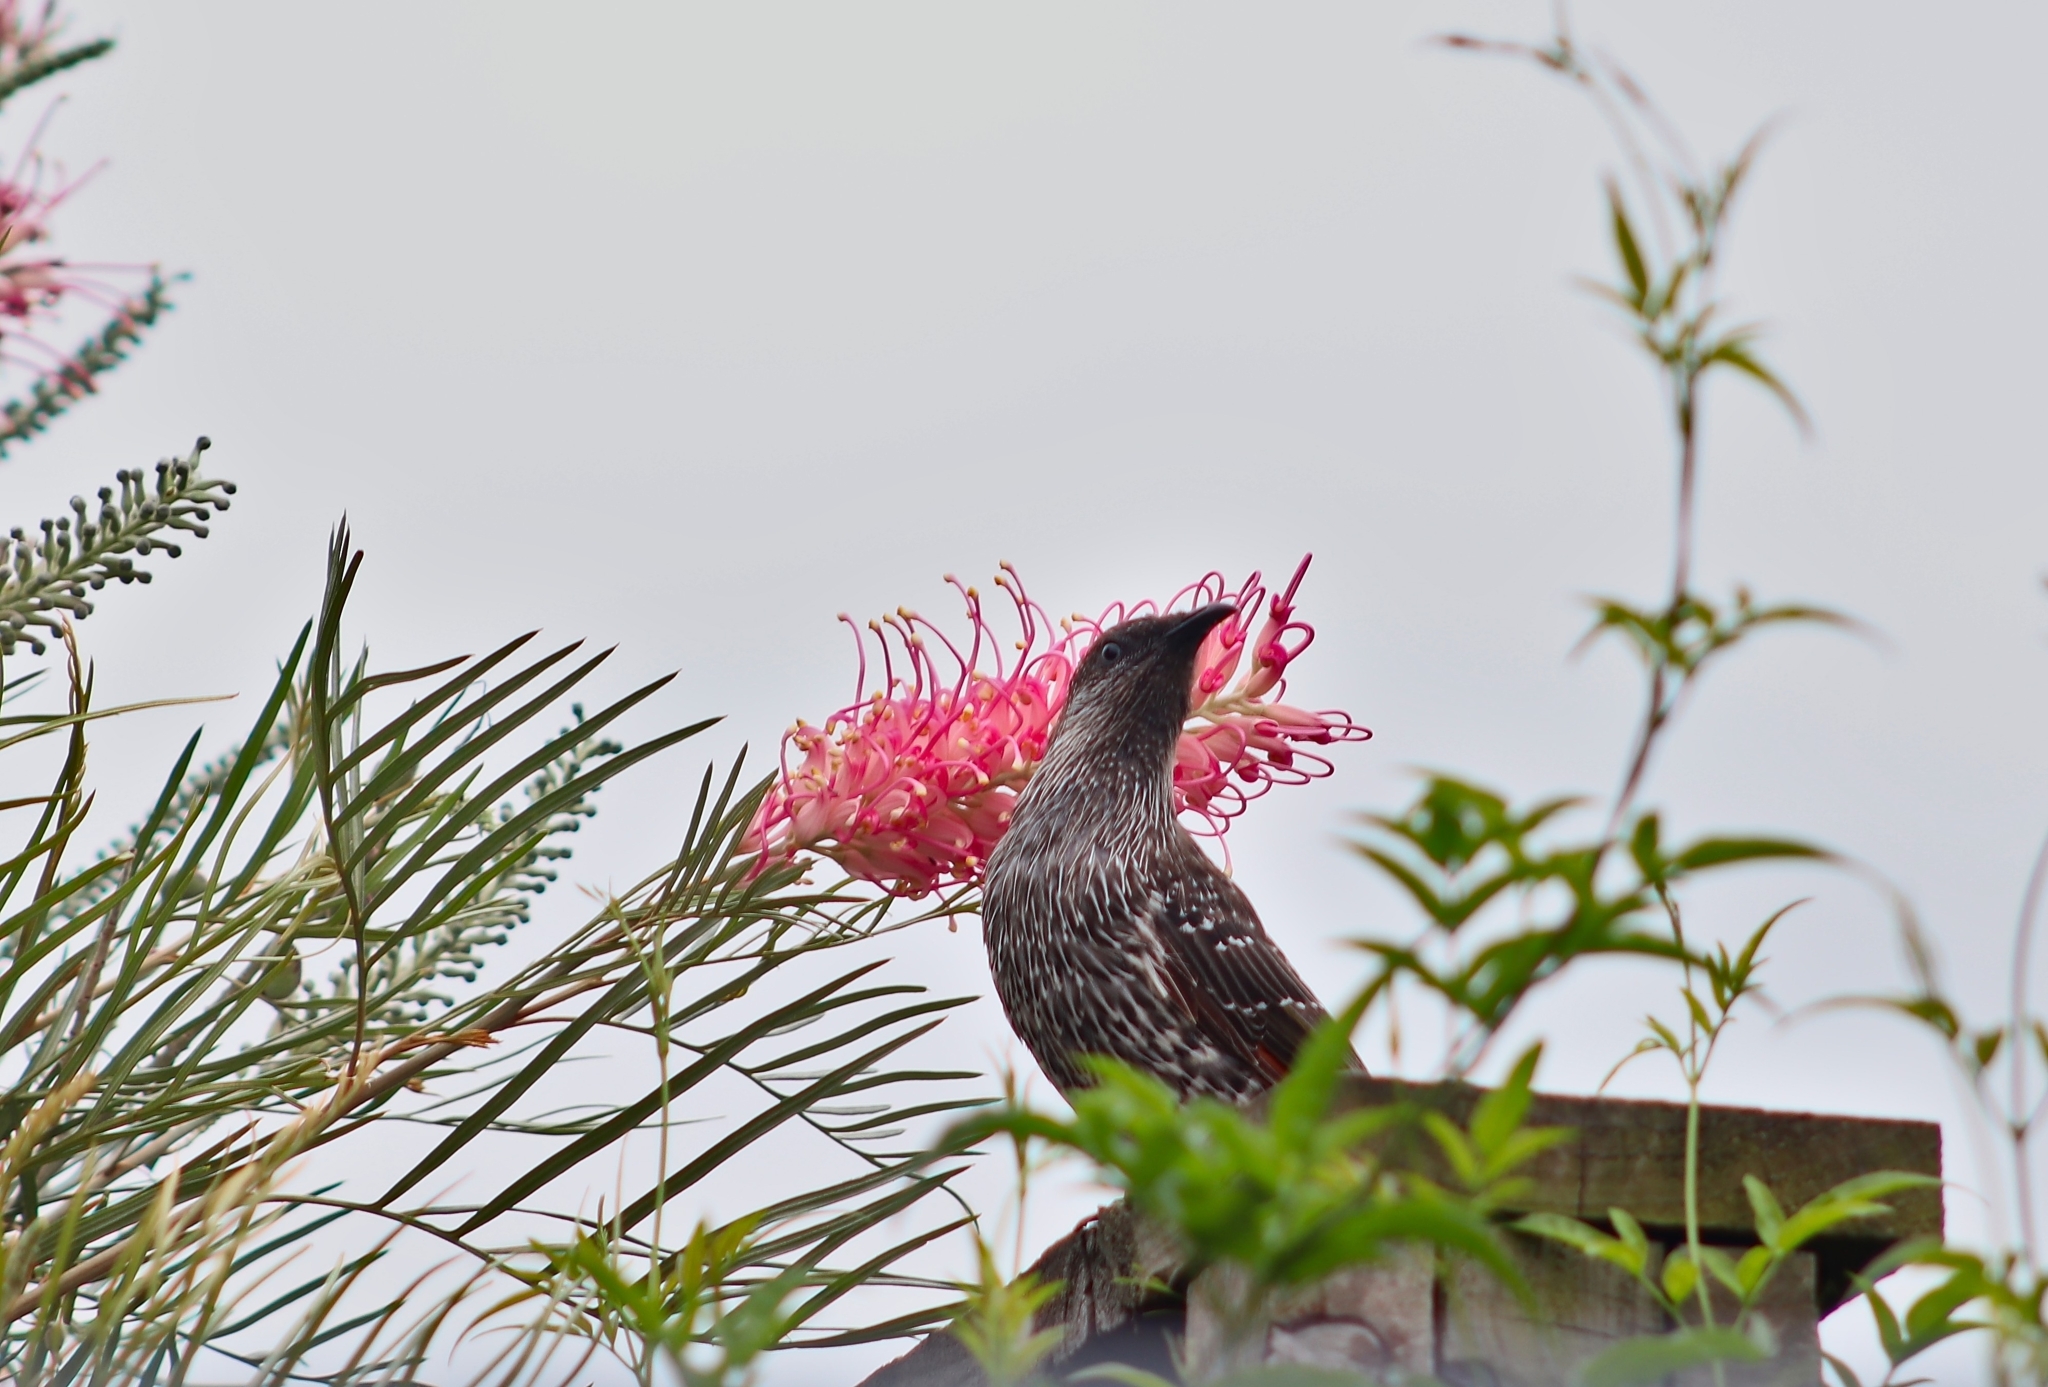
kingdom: Animalia
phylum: Chordata
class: Aves
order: Passeriformes
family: Meliphagidae
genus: Anthochaera
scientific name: Anthochaera chrysoptera
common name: Little wattlebird
